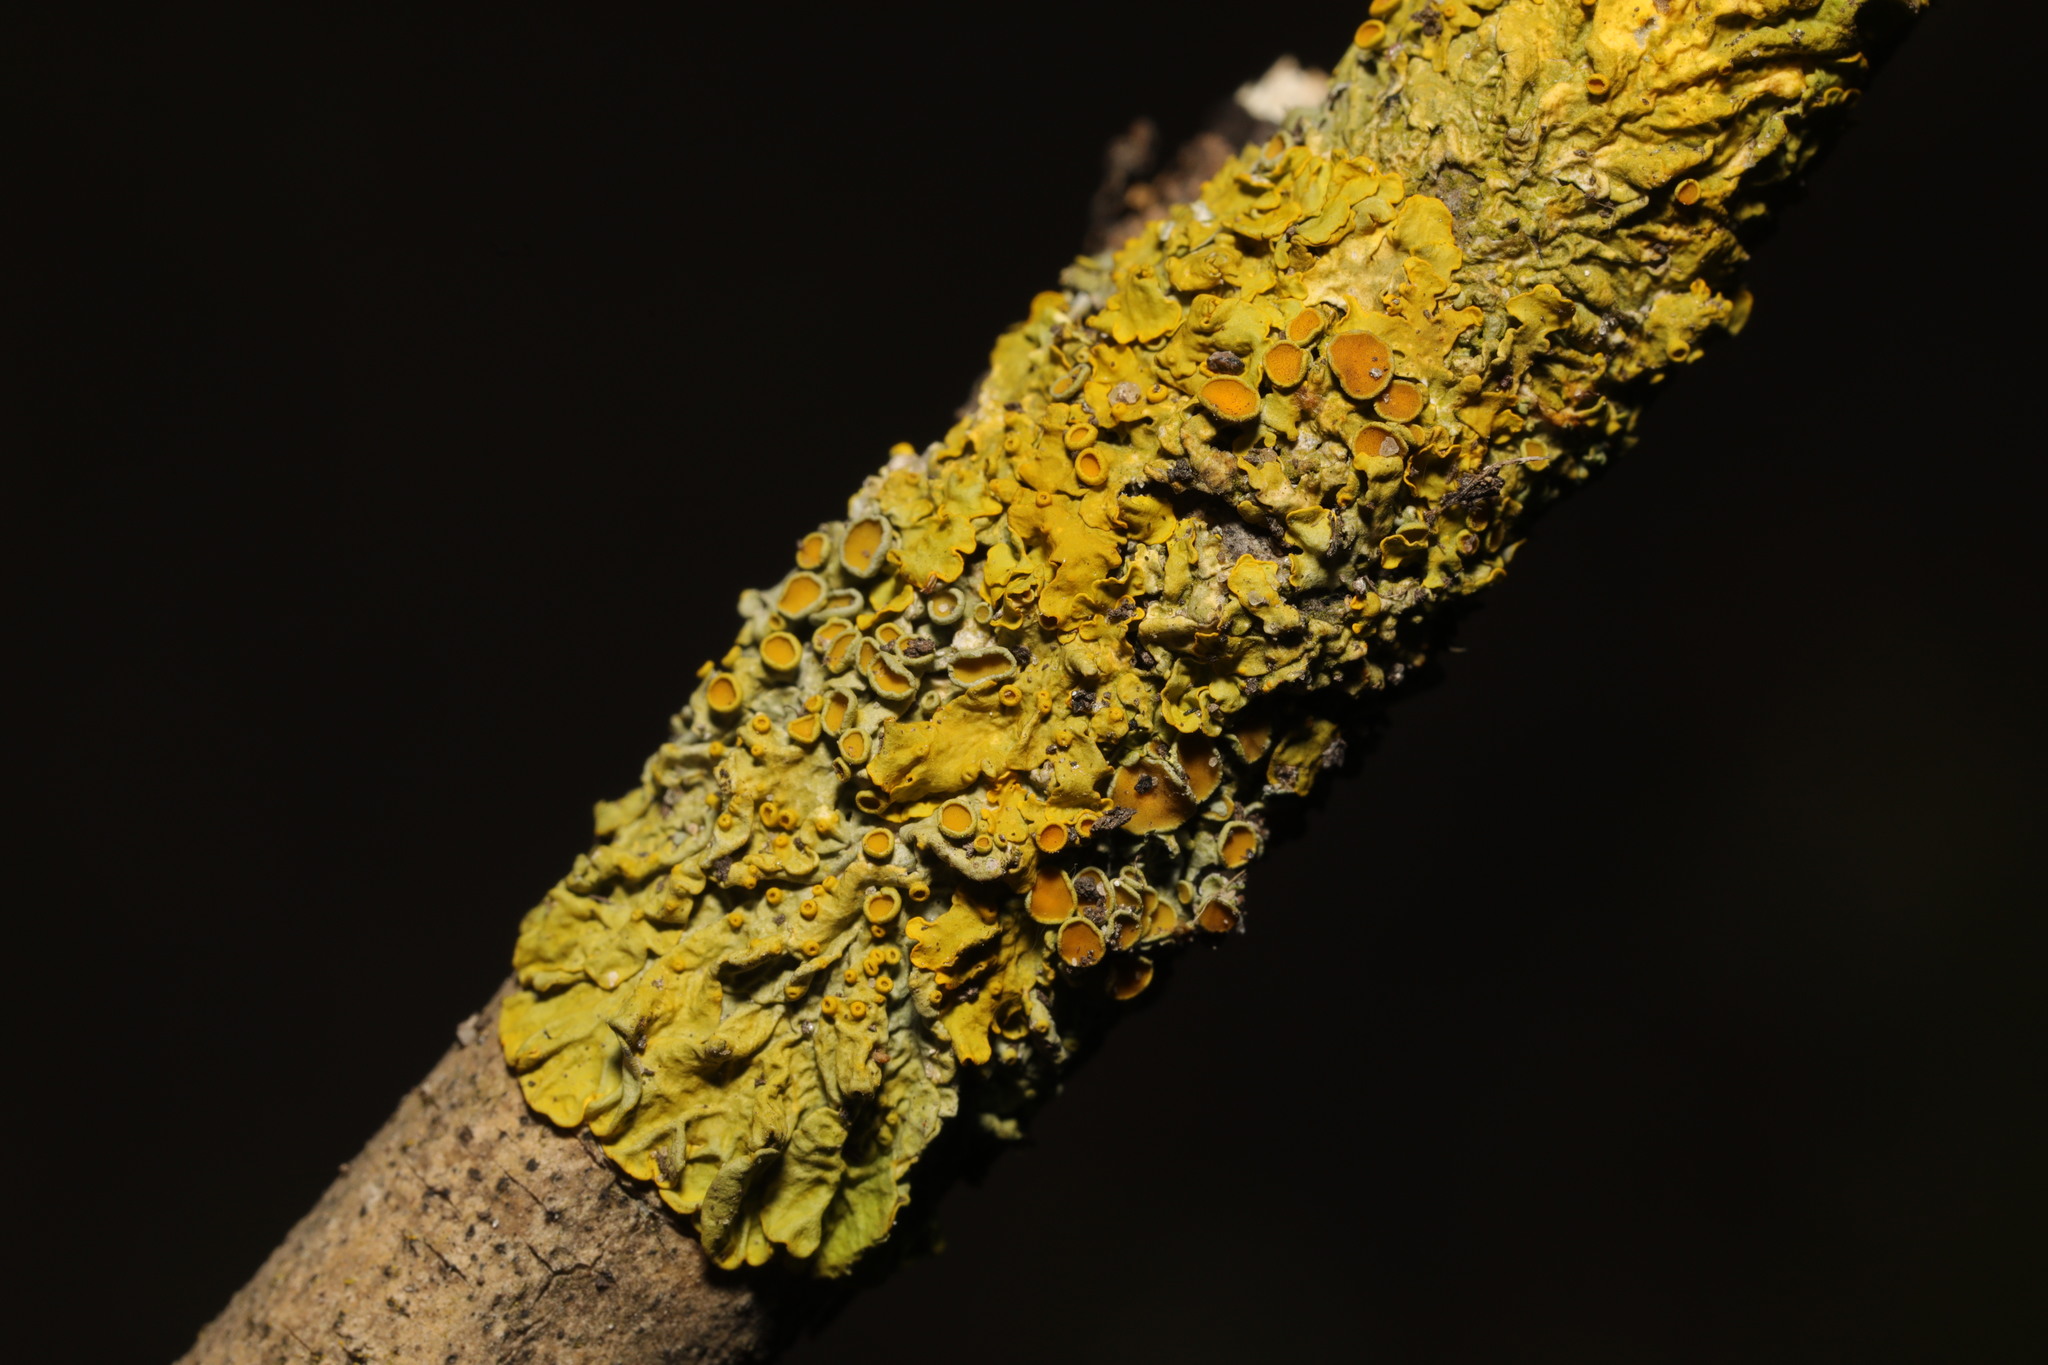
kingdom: Fungi
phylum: Ascomycota
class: Lecanoromycetes
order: Teloschistales
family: Teloschistaceae
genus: Xanthoria
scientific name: Xanthoria parietina
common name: Common orange lichen
